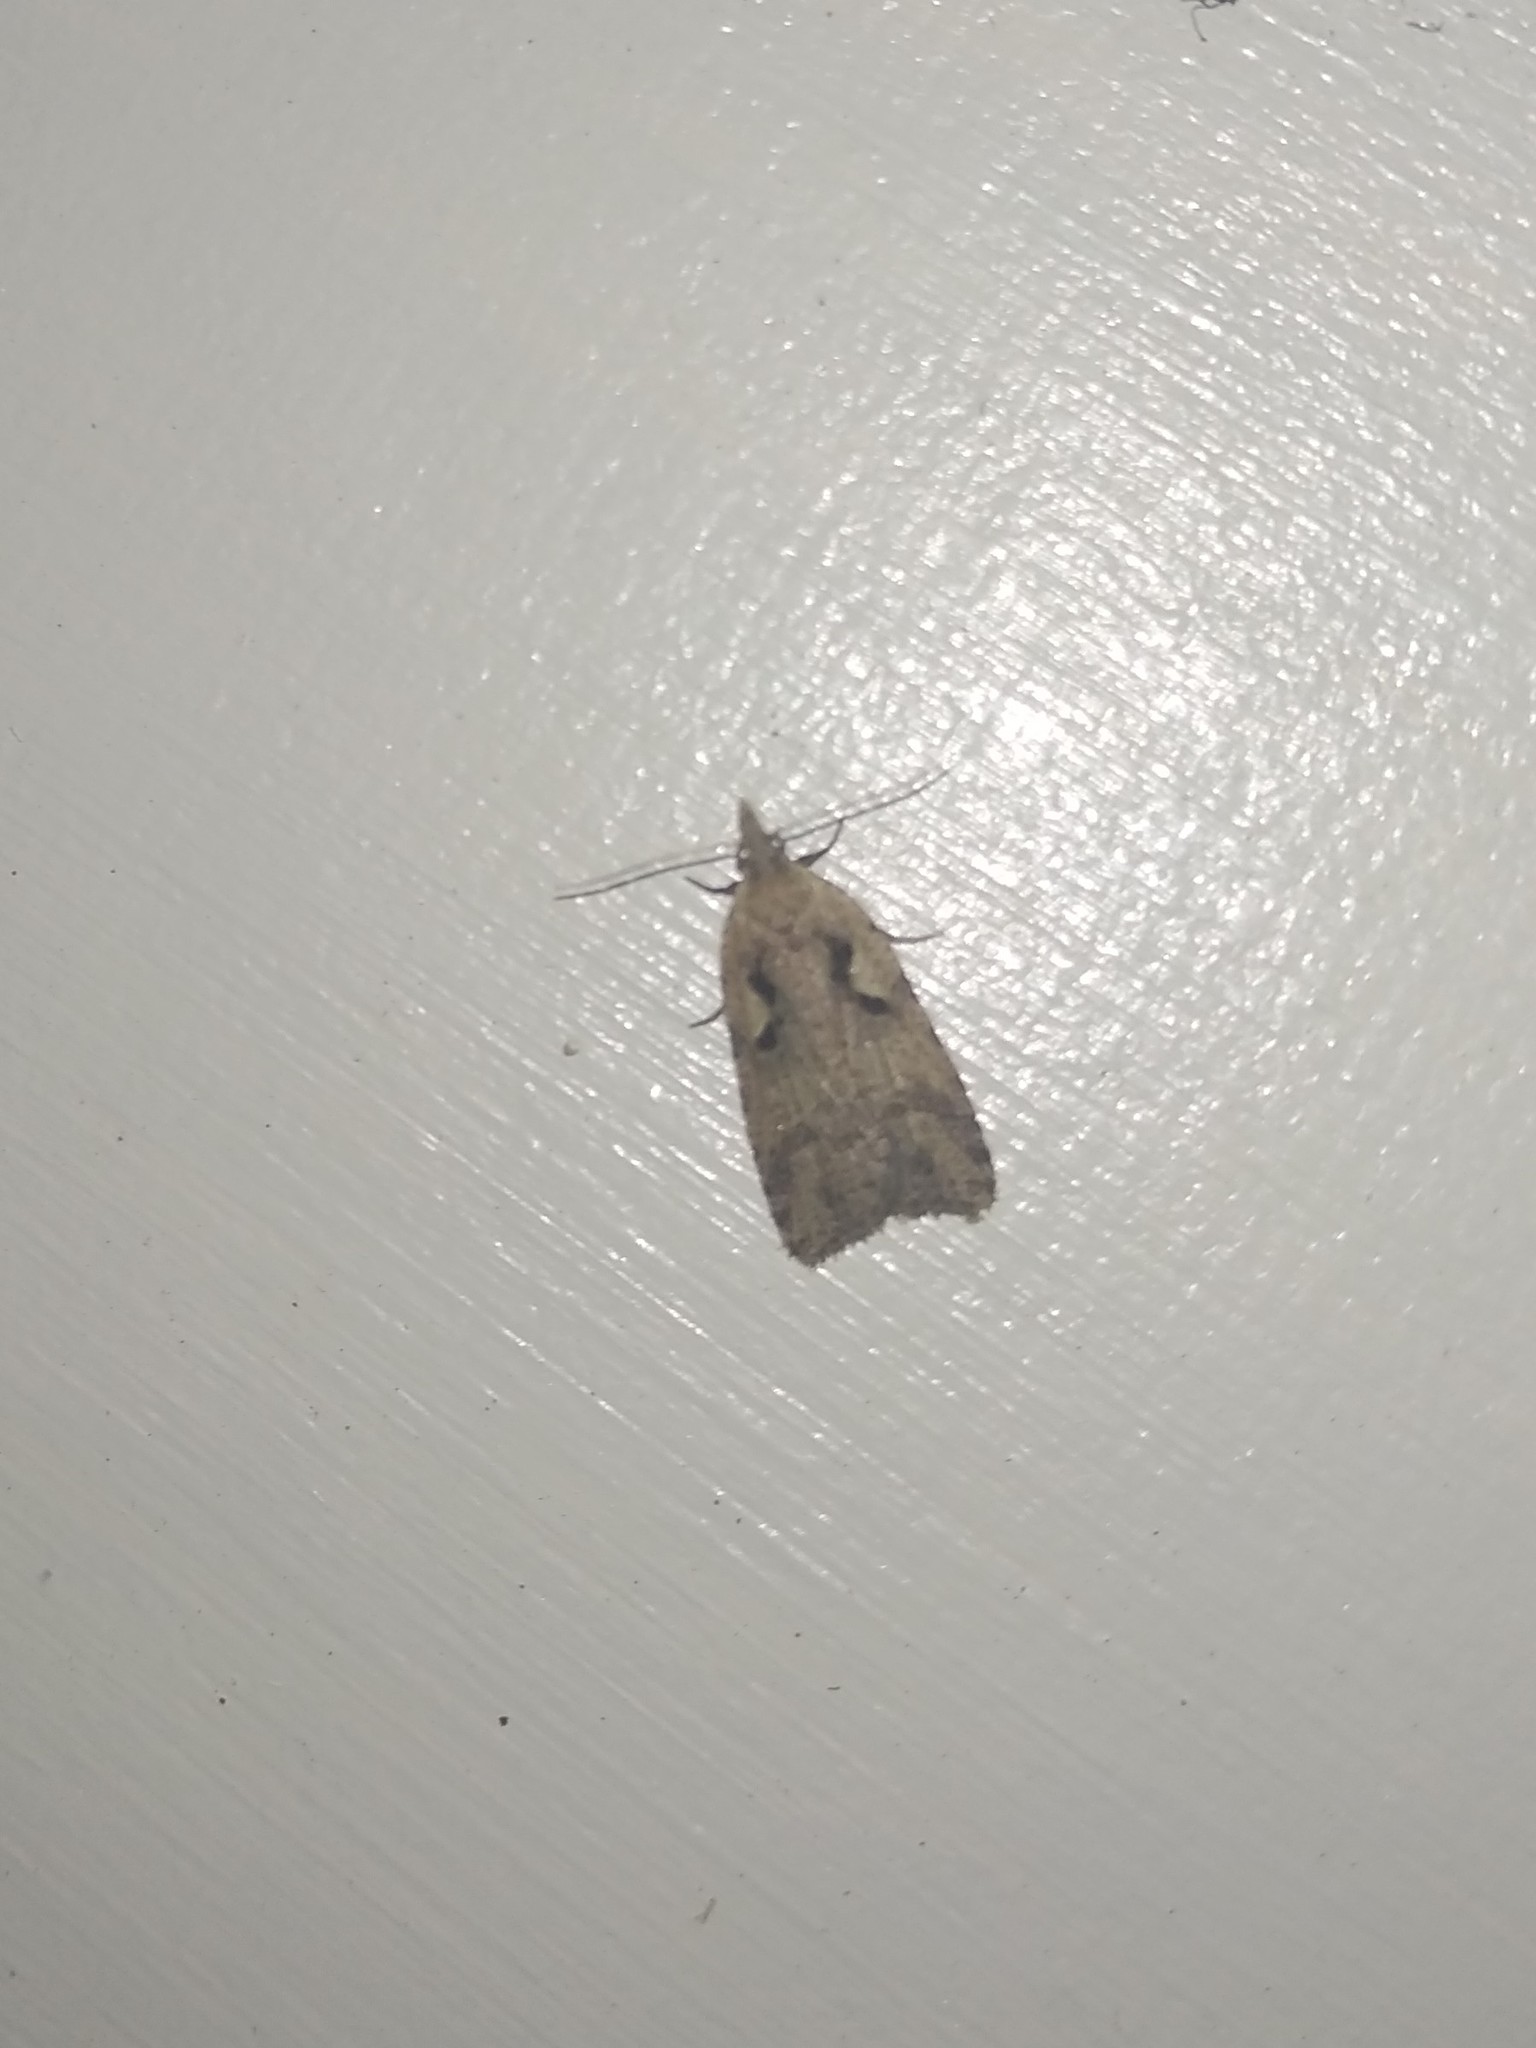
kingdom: Animalia
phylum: Arthropoda
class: Insecta
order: Lepidoptera
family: Tortricidae
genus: Cnephasia
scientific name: Cnephasia jactatana
